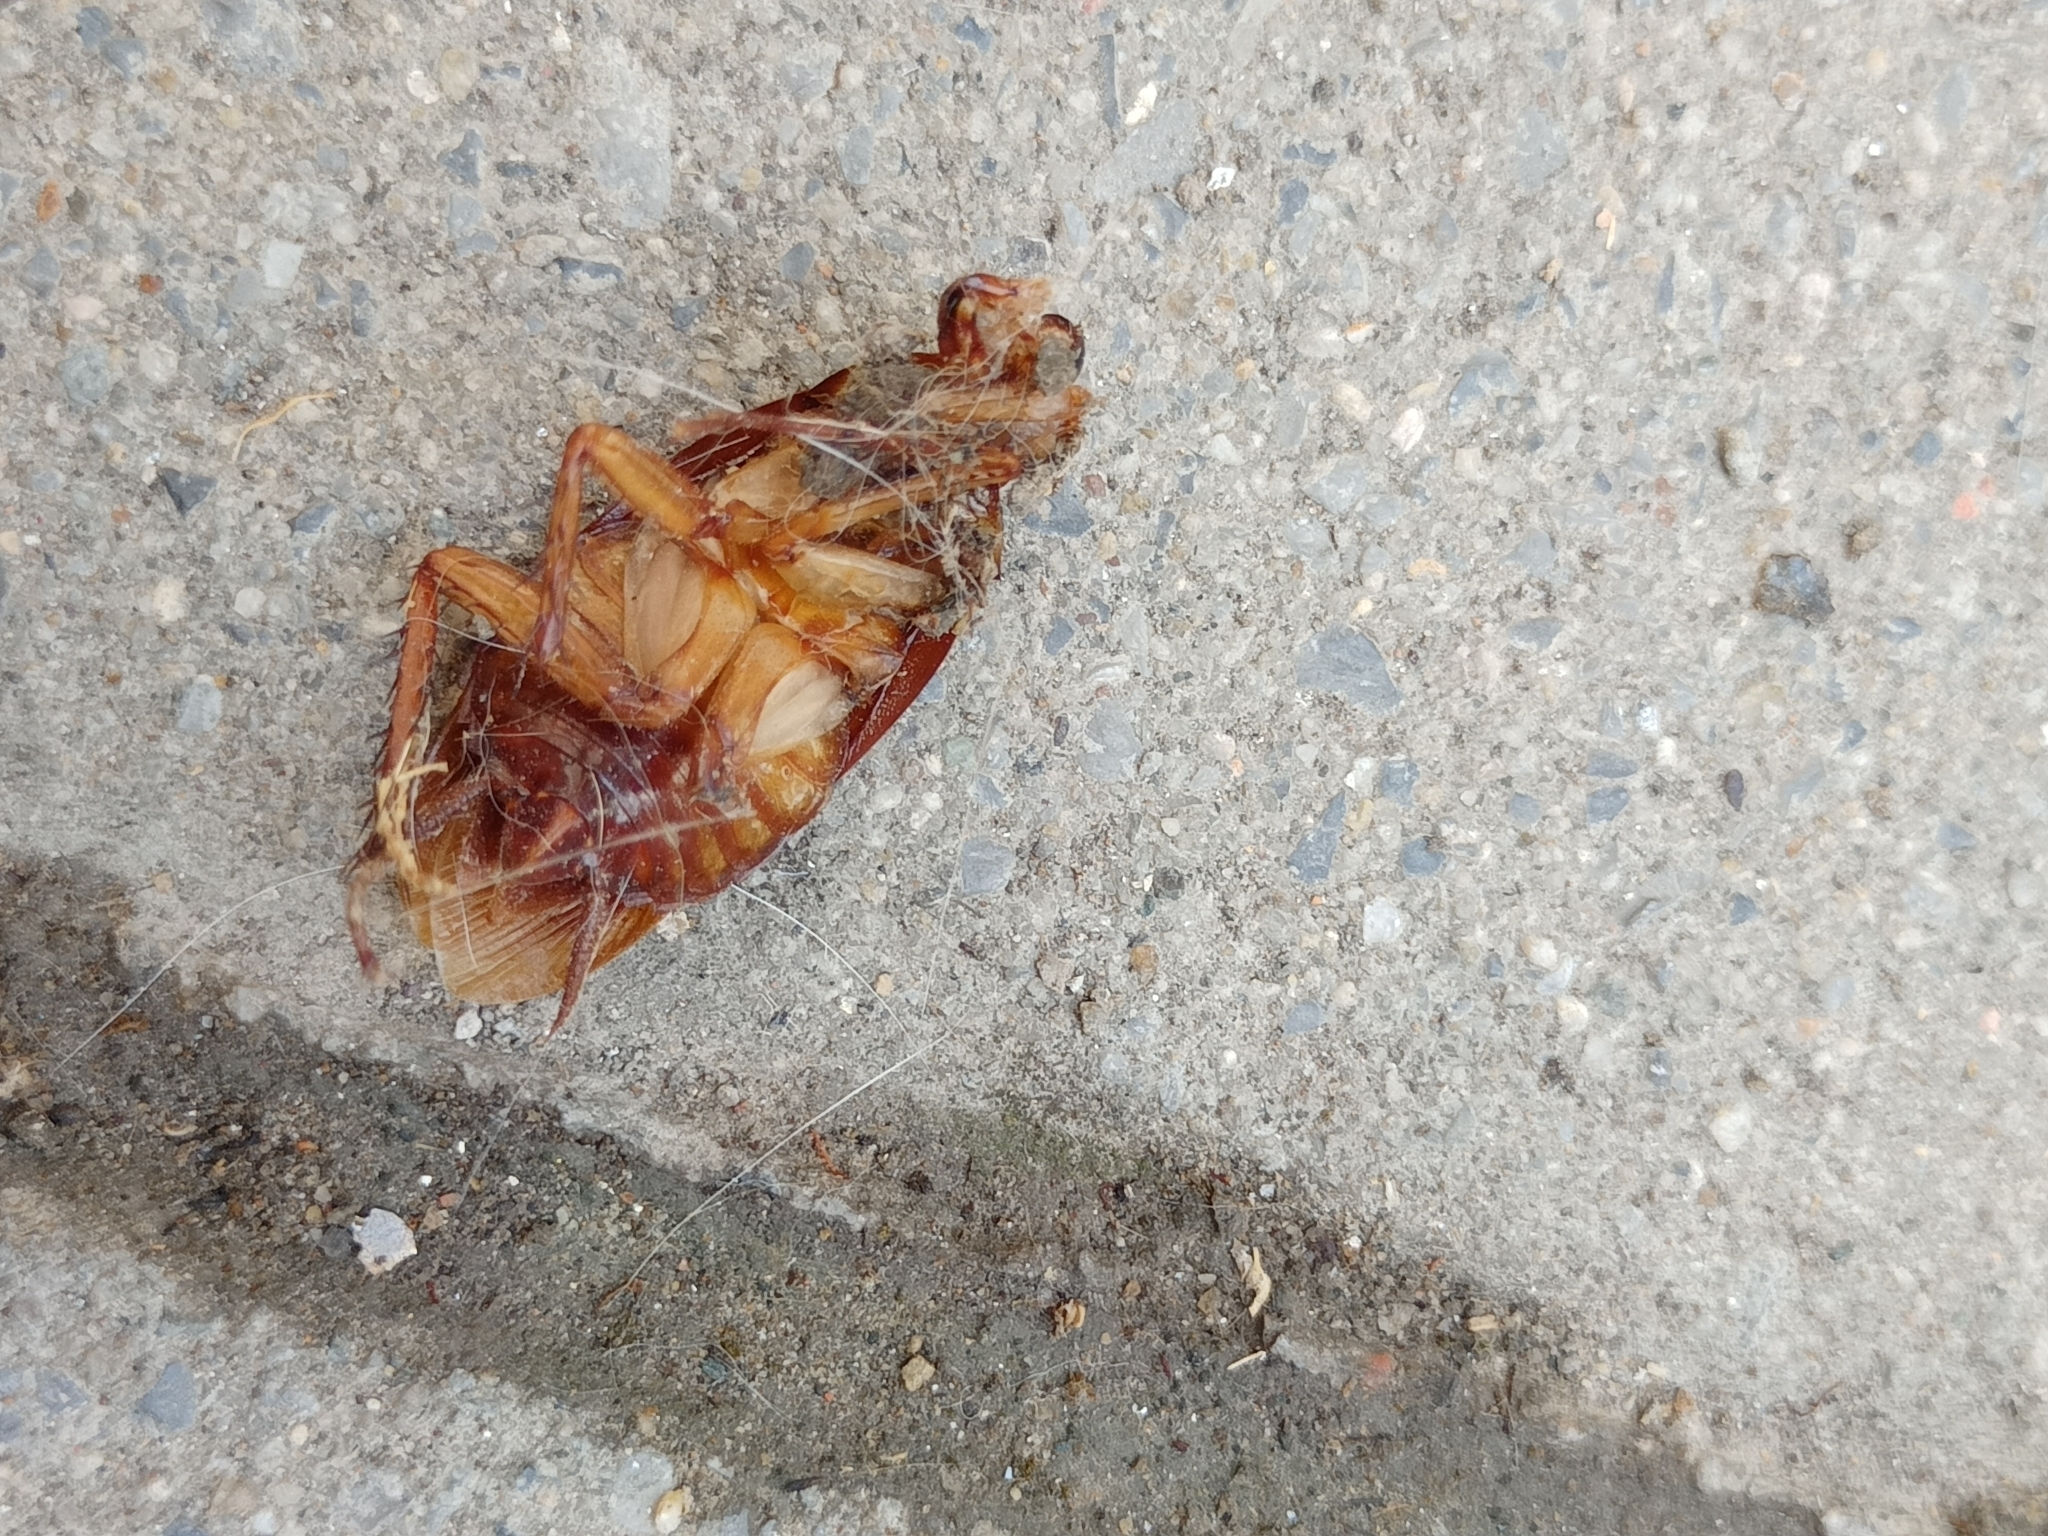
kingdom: Animalia
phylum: Arthropoda
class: Insecta
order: Blattodea
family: Blattidae
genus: Periplaneta
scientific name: Periplaneta americana
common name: American cockroach
